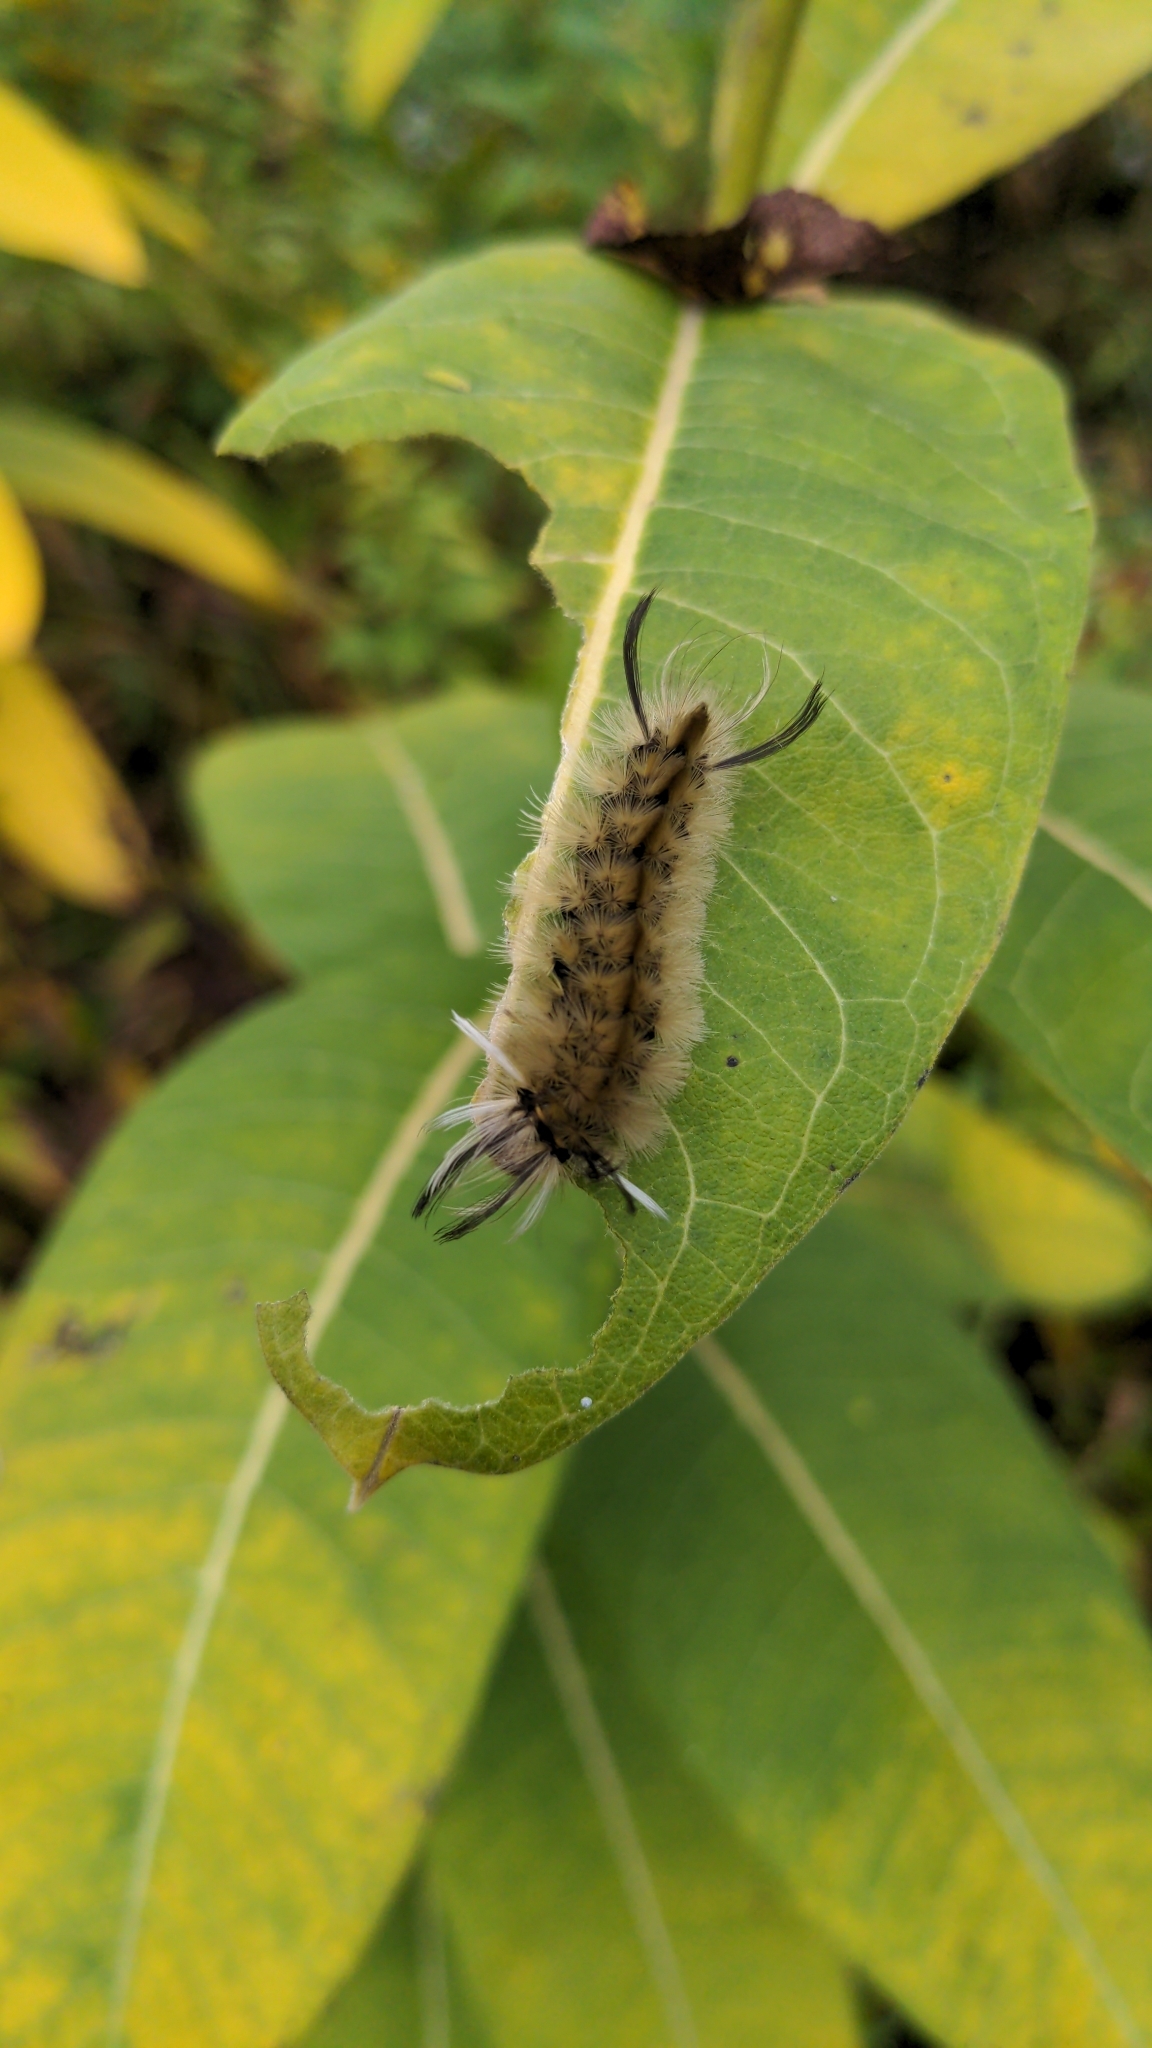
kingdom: Animalia
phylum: Arthropoda
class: Insecta
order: Lepidoptera
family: Erebidae
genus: Halysidota
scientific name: Halysidota tessellaris
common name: Banded tussock moth
